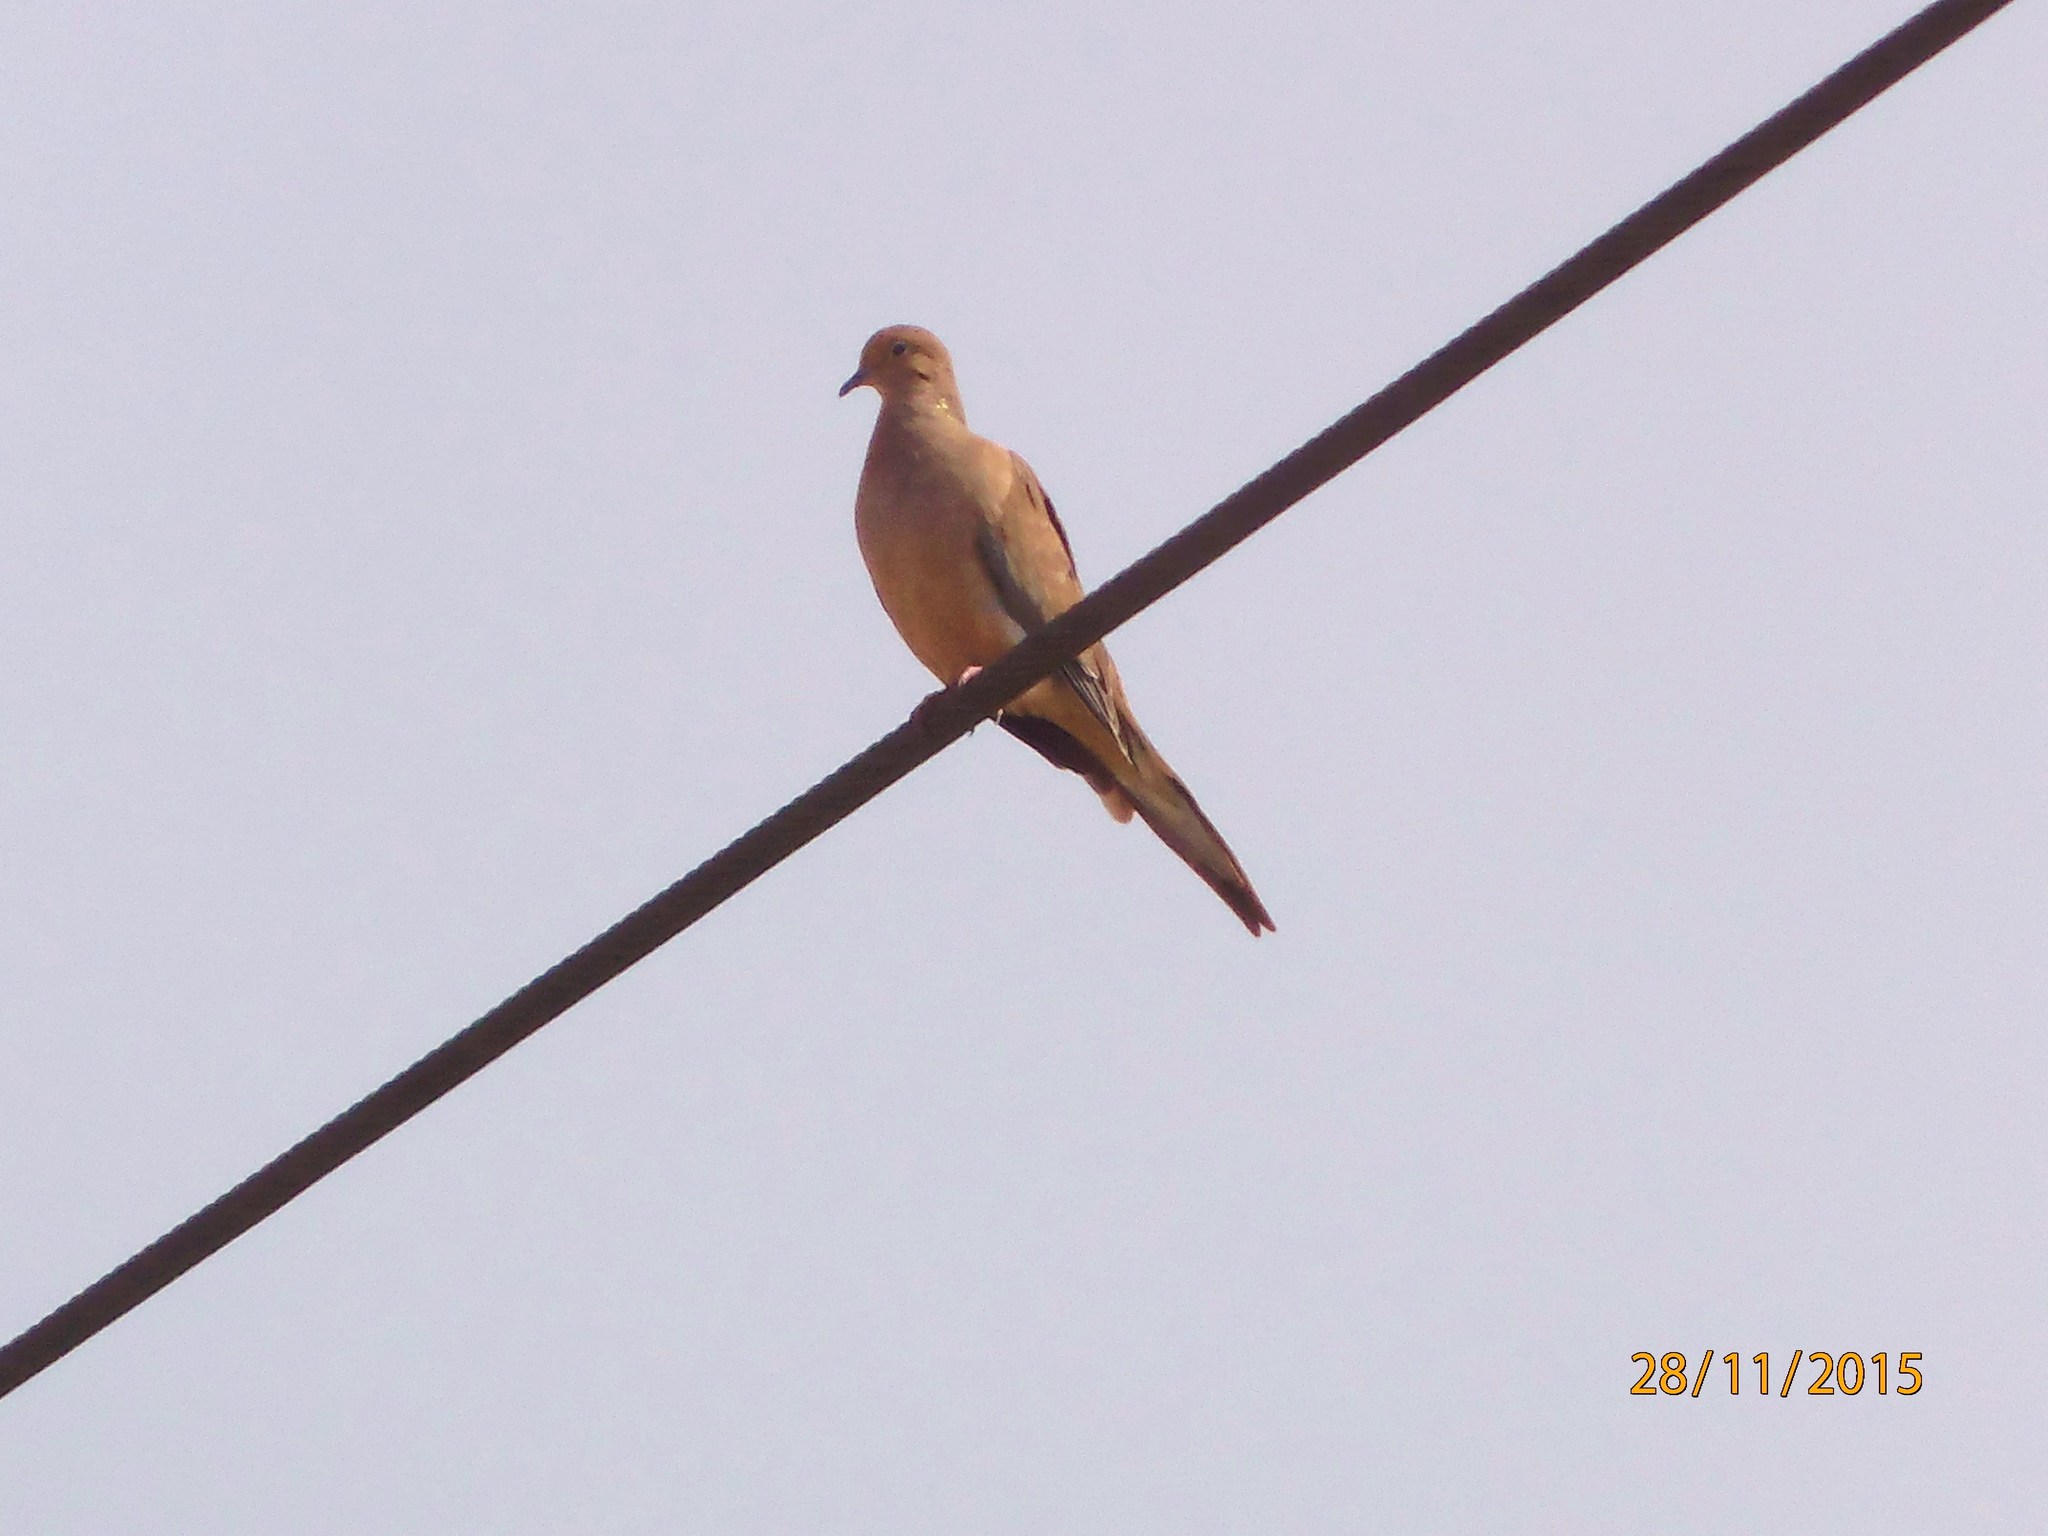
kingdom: Animalia
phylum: Chordata
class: Aves
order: Columbiformes
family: Columbidae
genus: Zenaida
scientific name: Zenaida macroura
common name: Mourning dove
